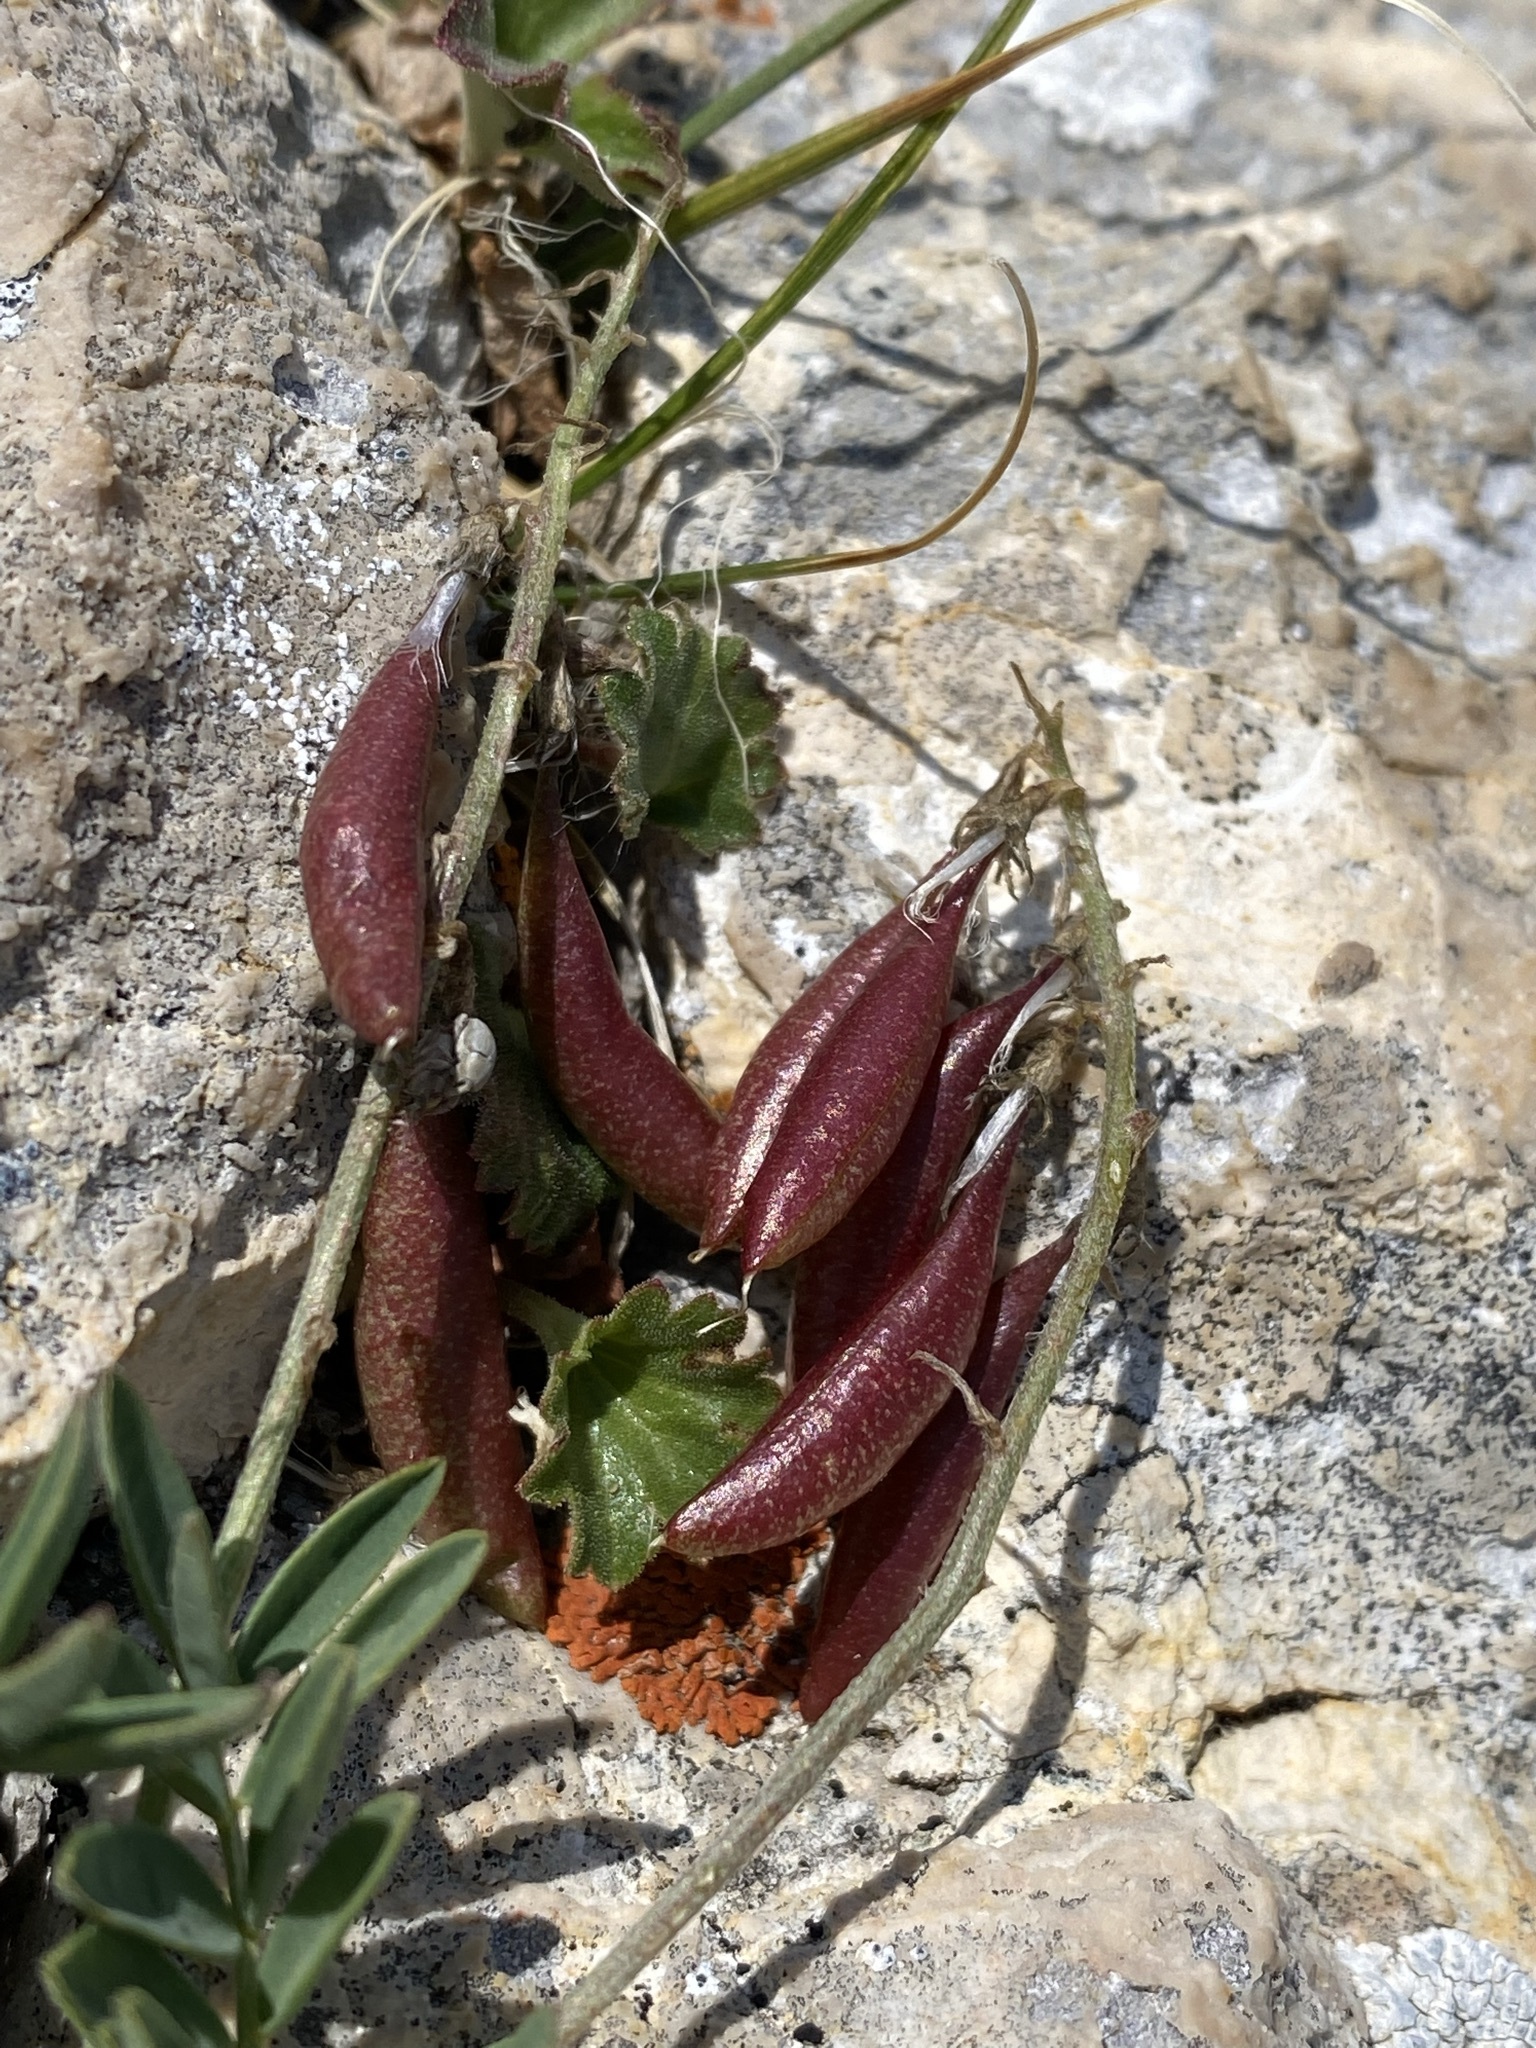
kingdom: Plantae
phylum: Tracheophyta
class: Magnoliopsida
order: Fabales
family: Fabaceae
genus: Astragalus
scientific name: Astragalus australis
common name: Indian milk-vetch
